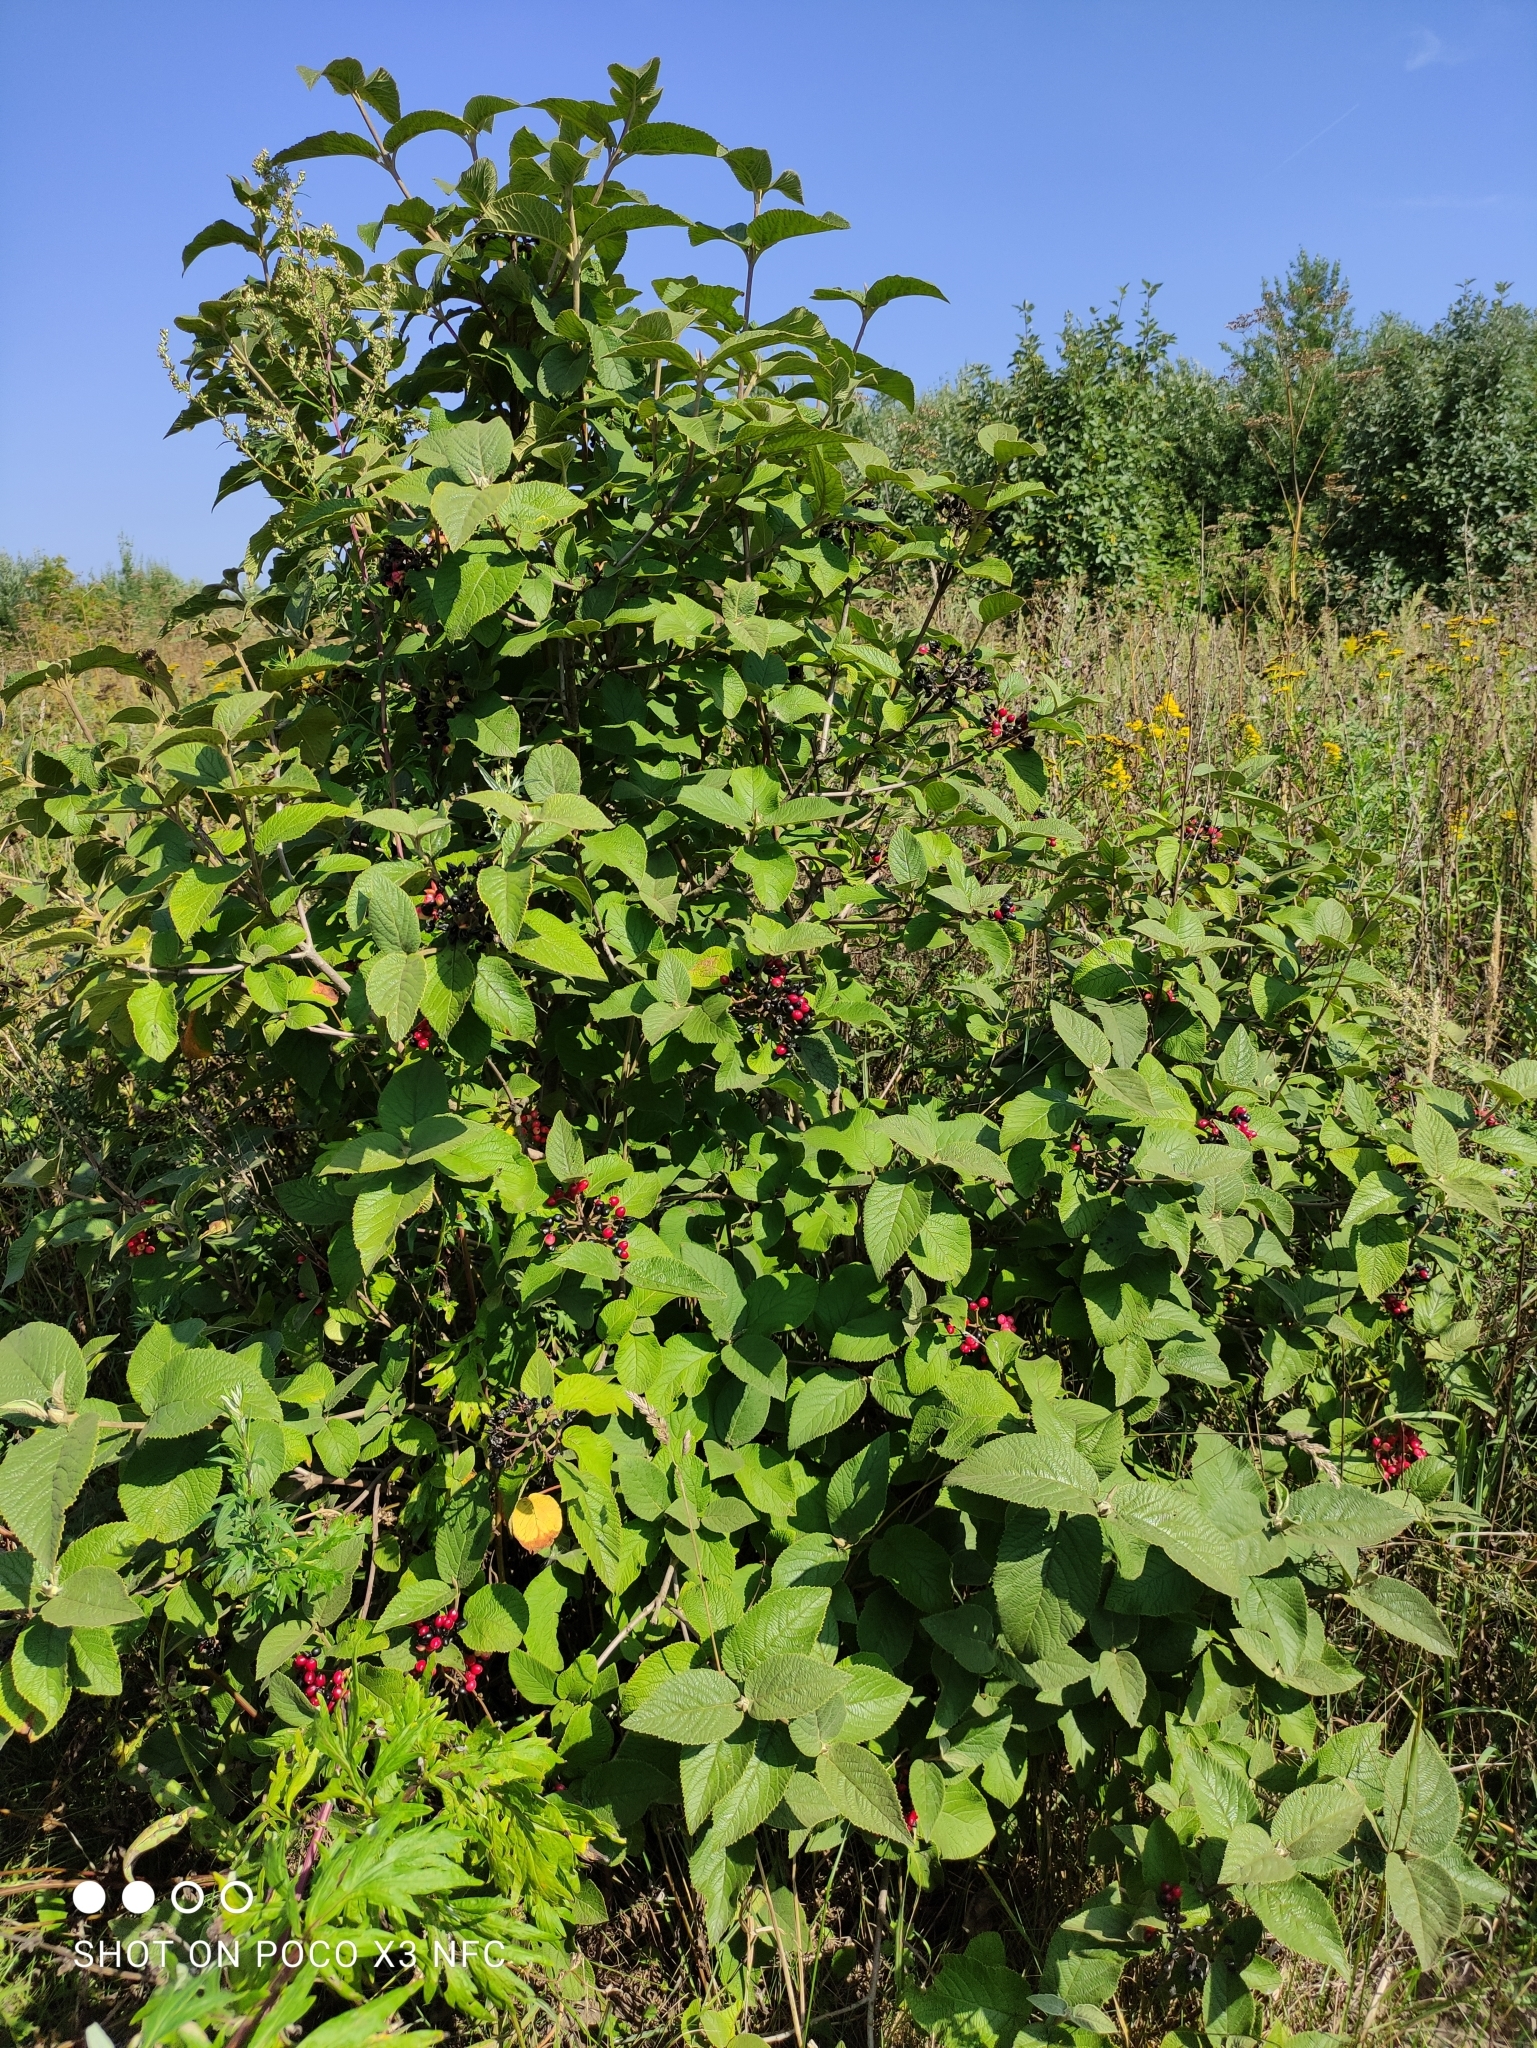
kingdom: Plantae
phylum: Tracheophyta
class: Magnoliopsida
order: Dipsacales
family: Viburnaceae
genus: Viburnum
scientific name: Viburnum lantana
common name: Wayfaring tree
